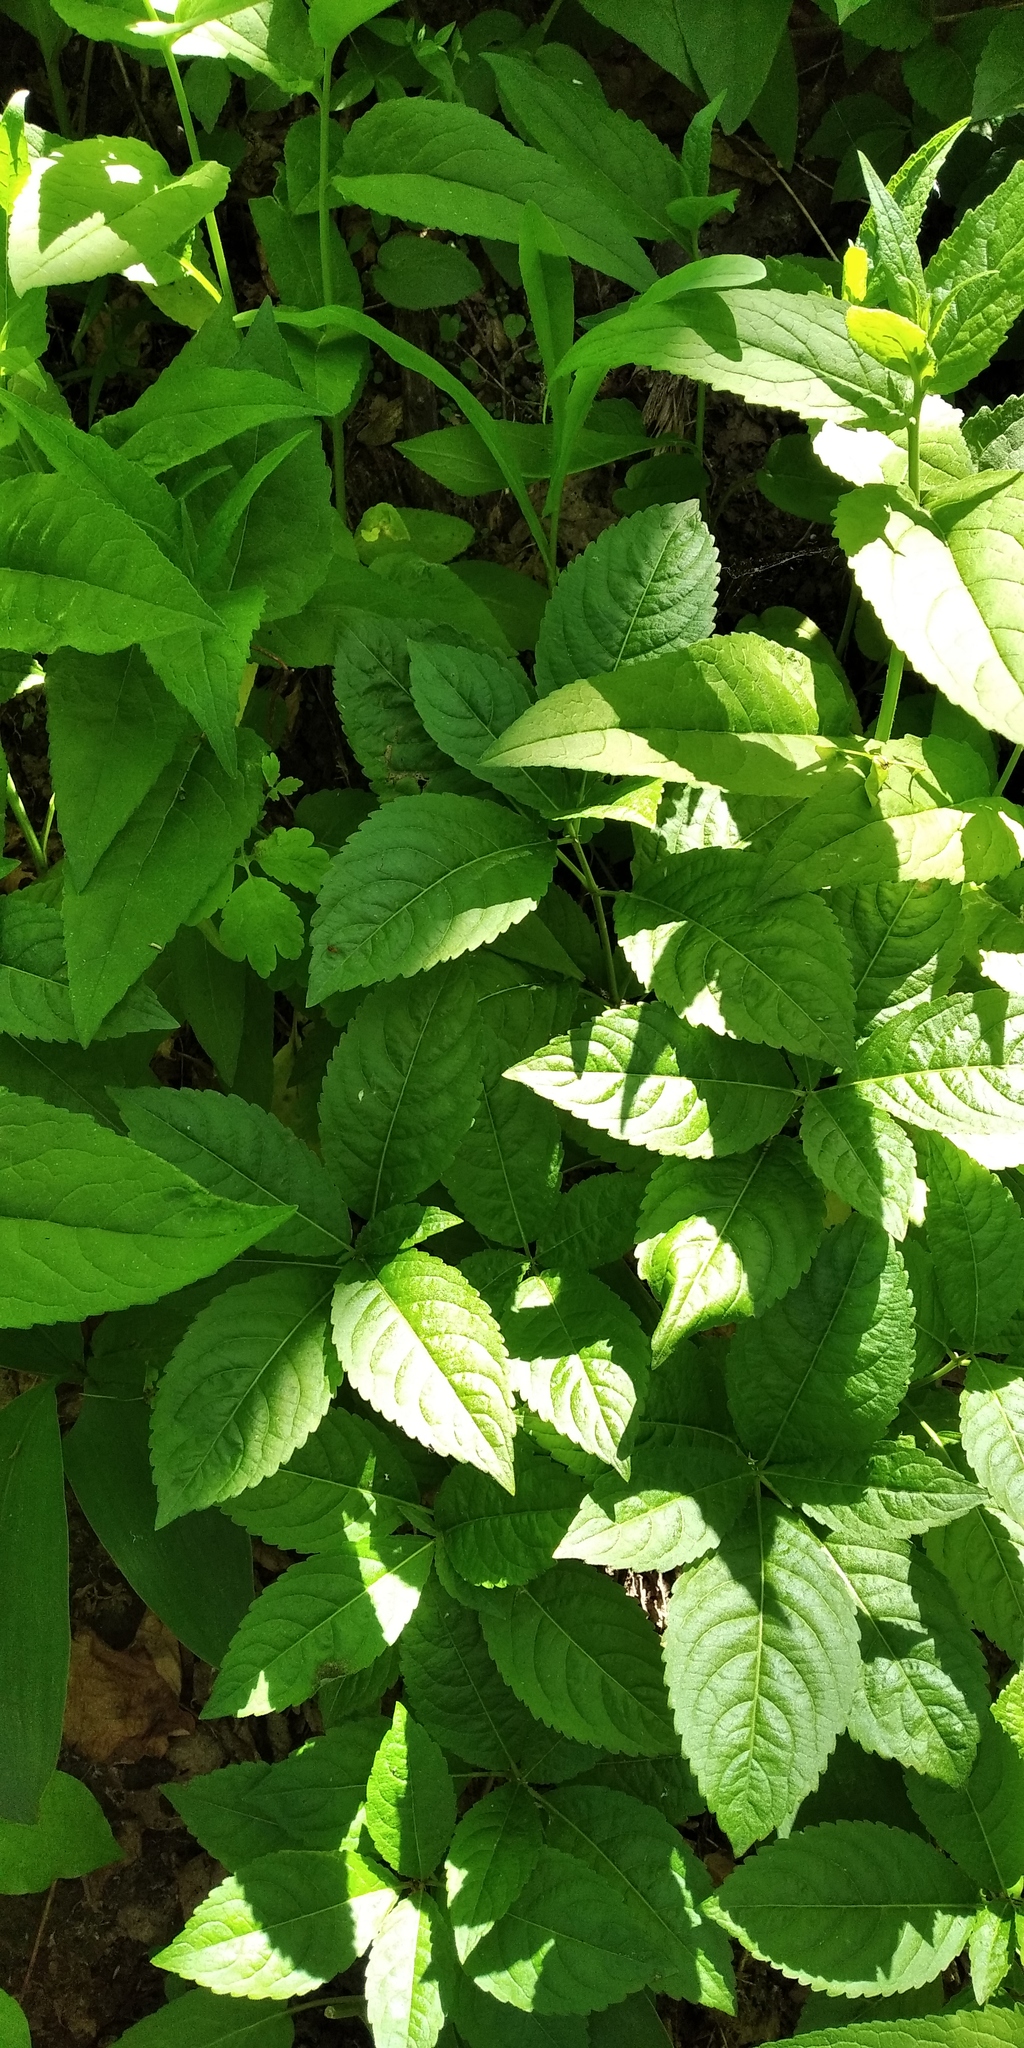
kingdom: Plantae
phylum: Tracheophyta
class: Magnoliopsida
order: Malpighiales
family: Euphorbiaceae
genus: Mercurialis
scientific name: Mercurialis perennis
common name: Dog mercury
